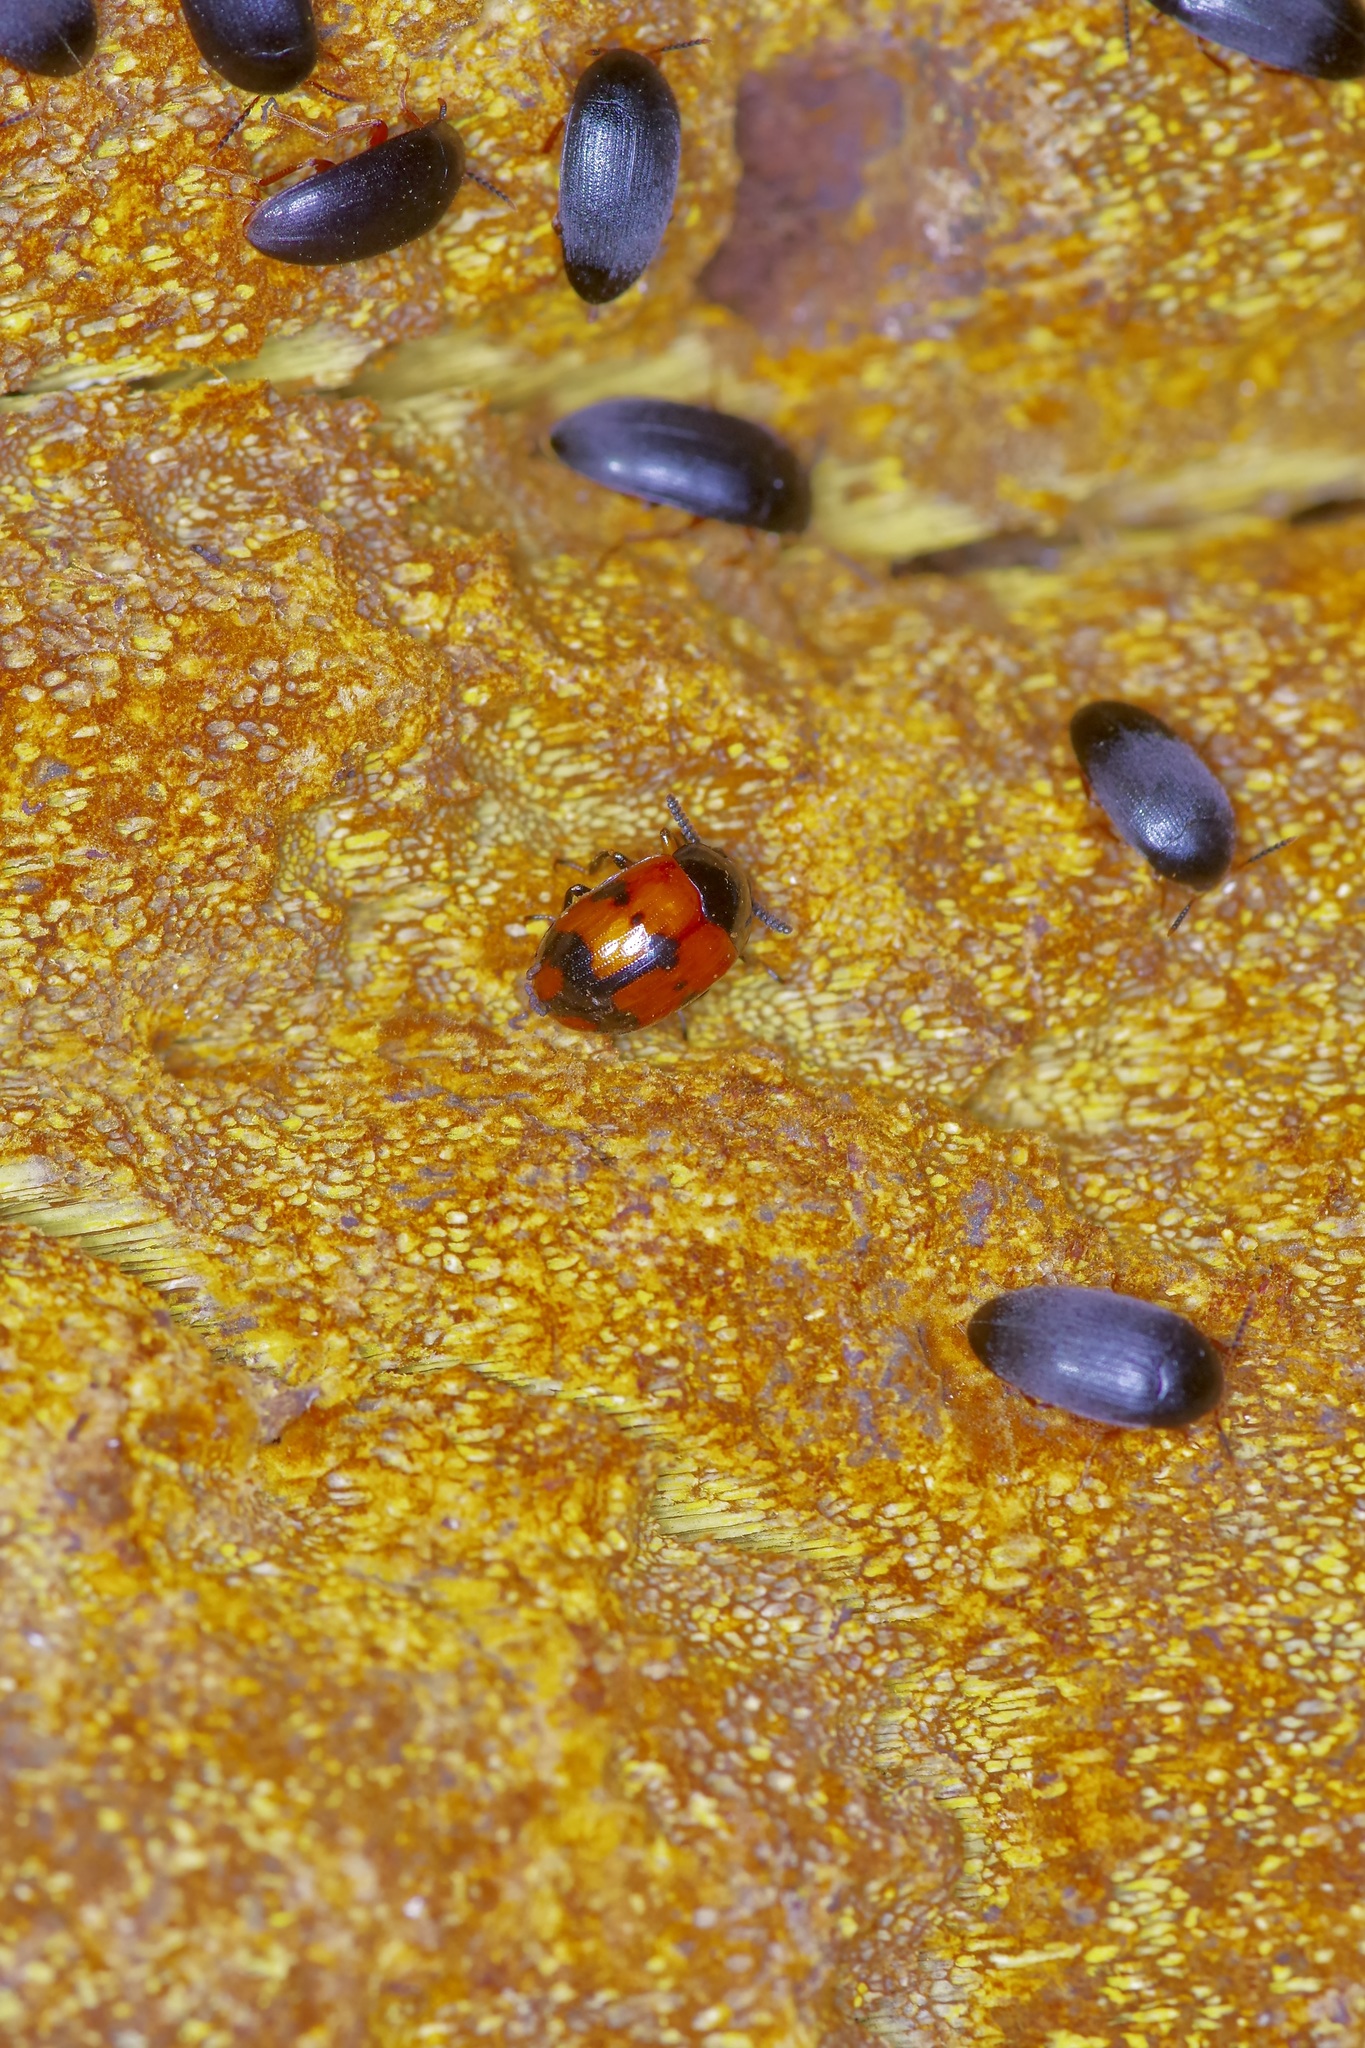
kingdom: Animalia
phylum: Arthropoda
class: Insecta
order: Coleoptera
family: Tenebrionidae
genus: Diaperis
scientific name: Diaperis nigronotata
